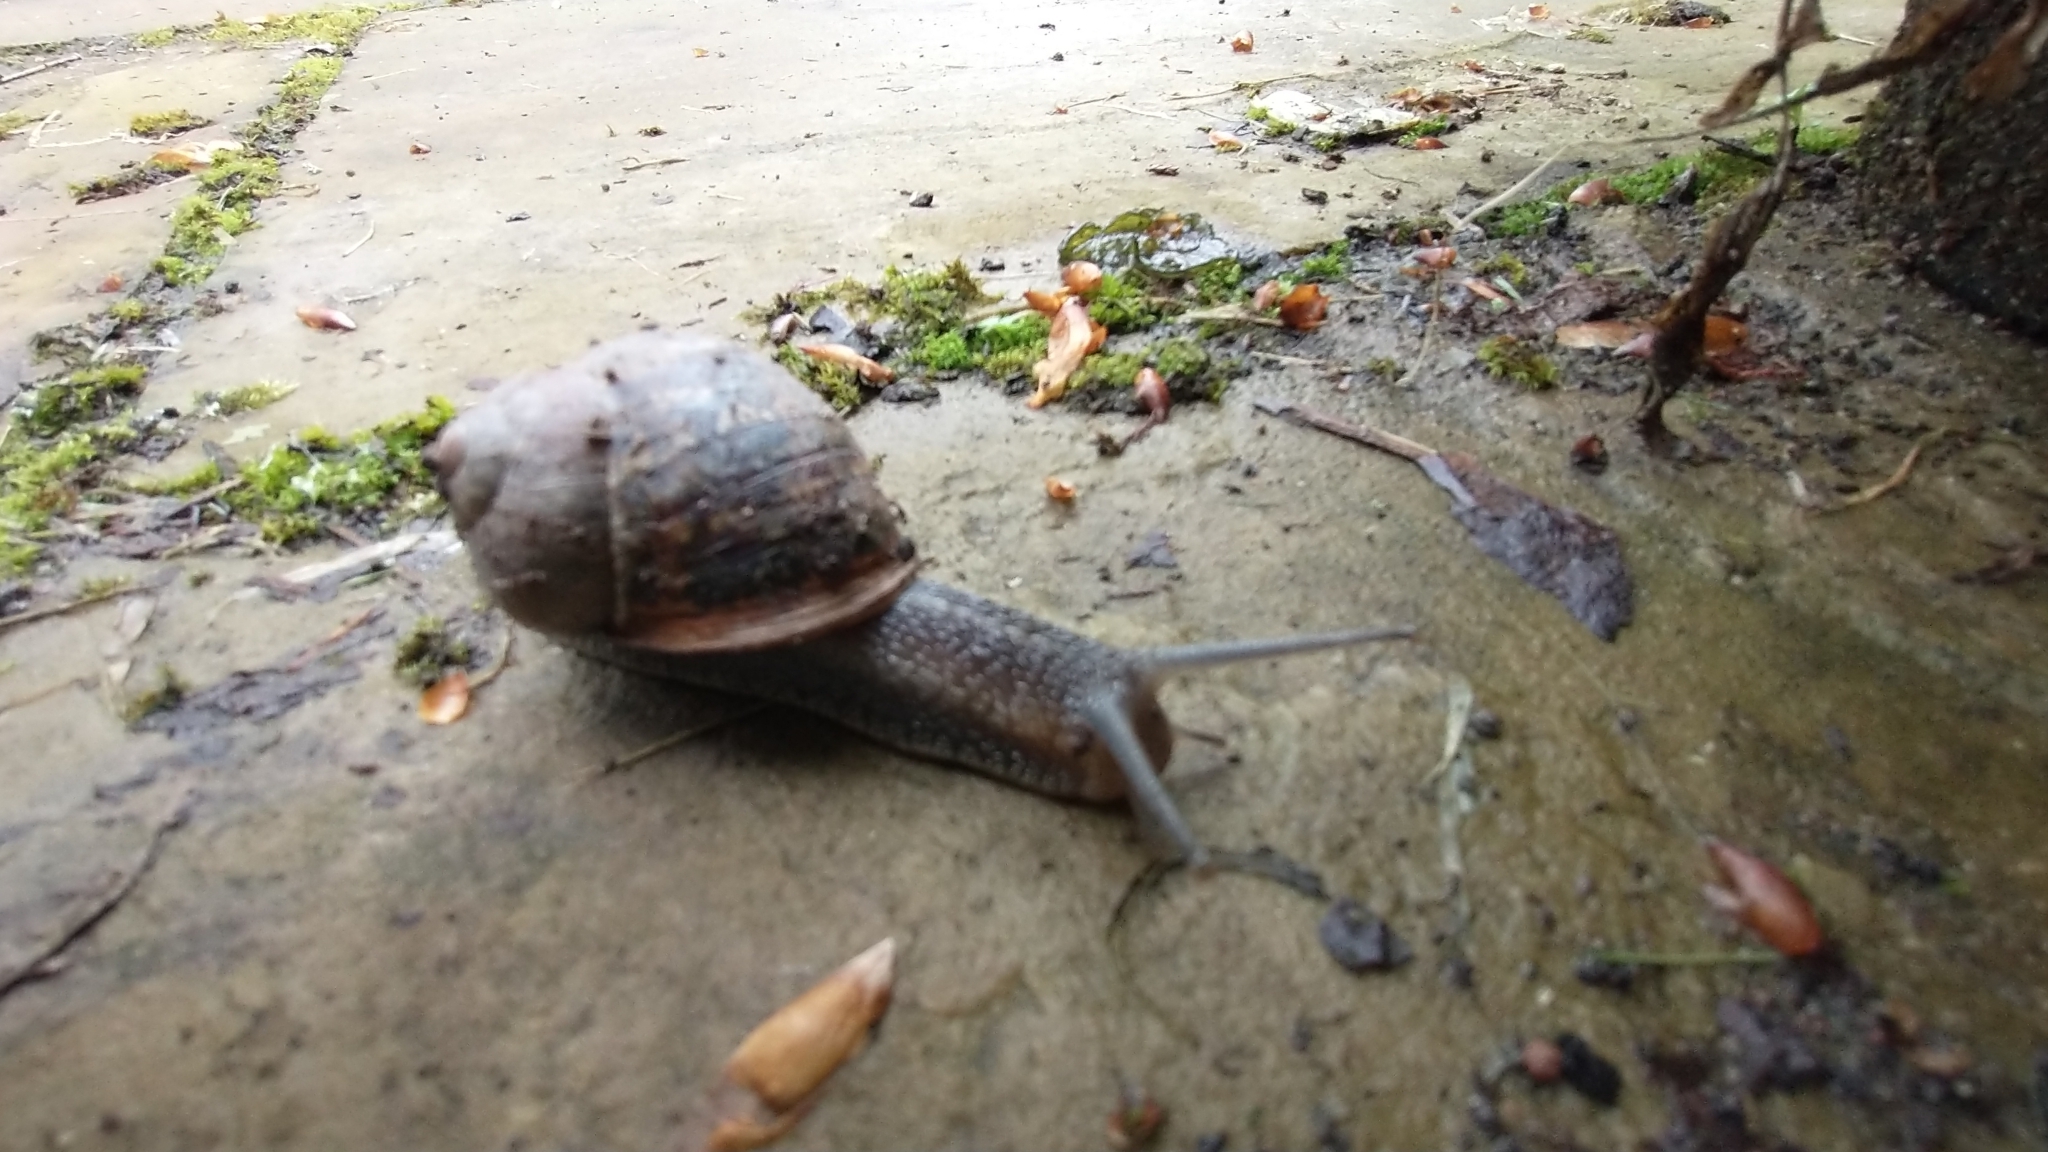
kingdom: Animalia
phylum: Mollusca
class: Gastropoda
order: Stylommatophora
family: Helicidae
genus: Cornu
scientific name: Cornu aspersum
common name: Brown garden snail
